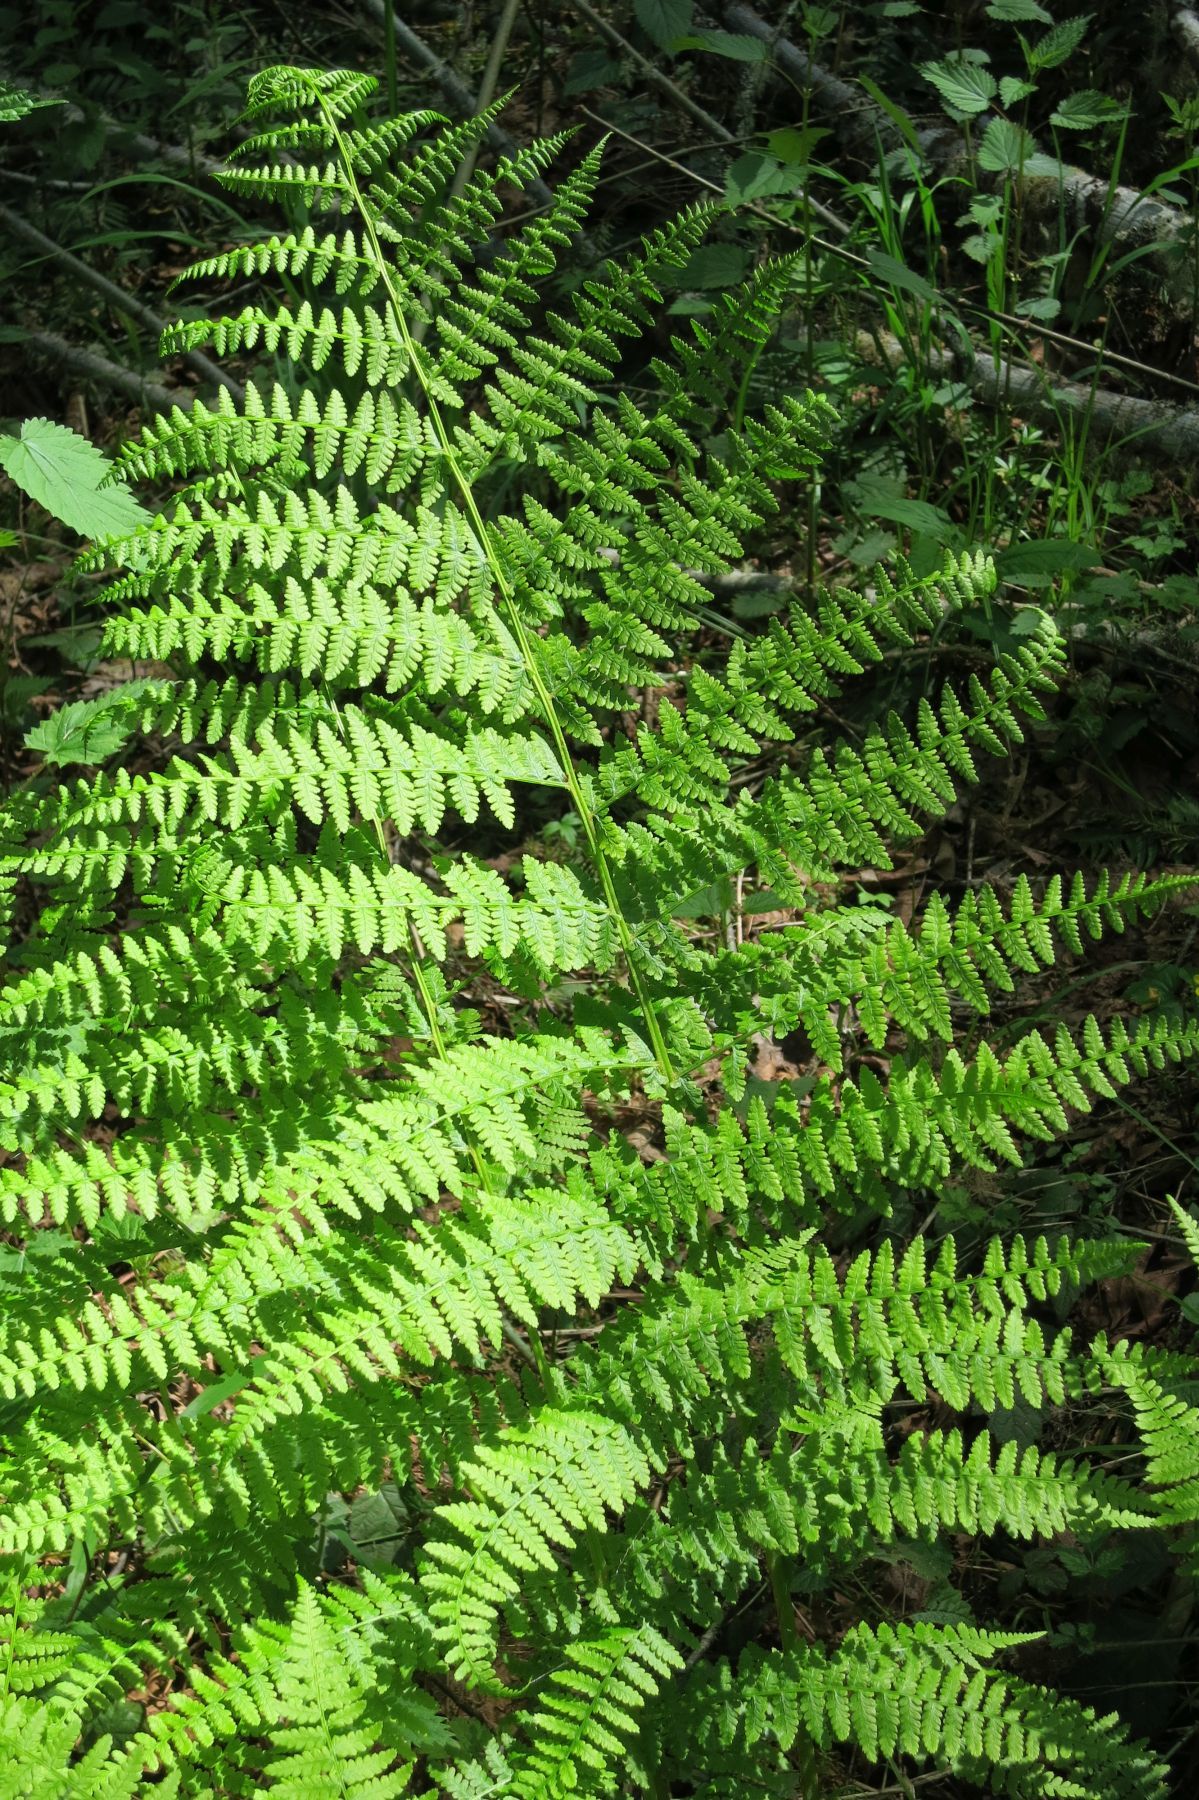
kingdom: Plantae
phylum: Tracheophyta
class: Polypodiopsida
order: Polypodiales
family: Athyriaceae
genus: Athyrium
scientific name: Athyrium cyclosorum
